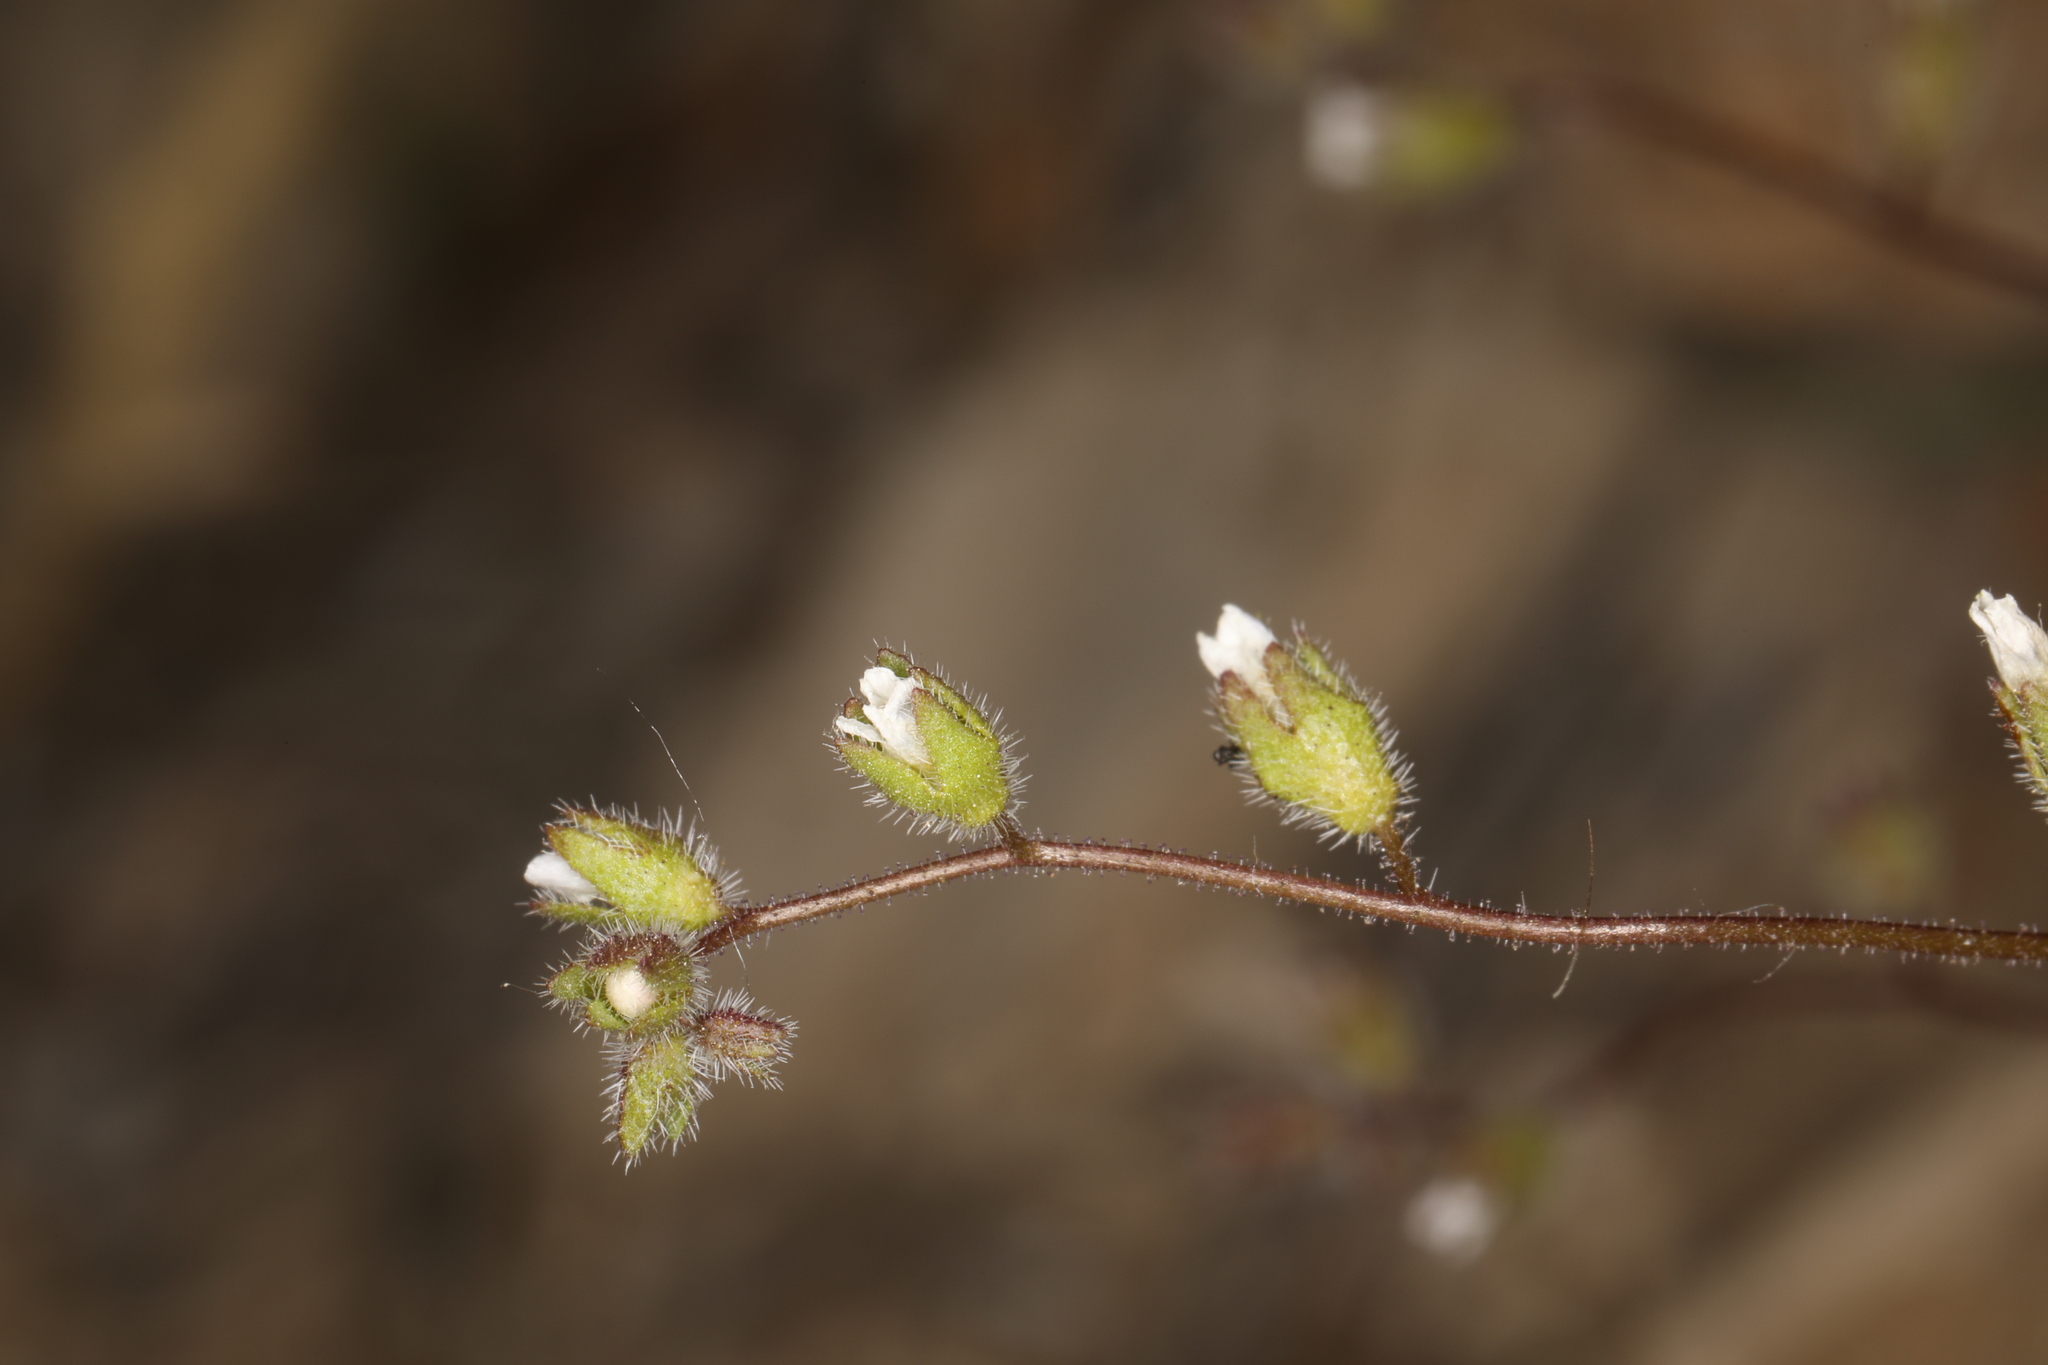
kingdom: Plantae
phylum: Tracheophyta
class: Magnoliopsida
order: Boraginales
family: Hydrophyllaceae
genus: Eucrypta
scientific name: Eucrypta micrantha
